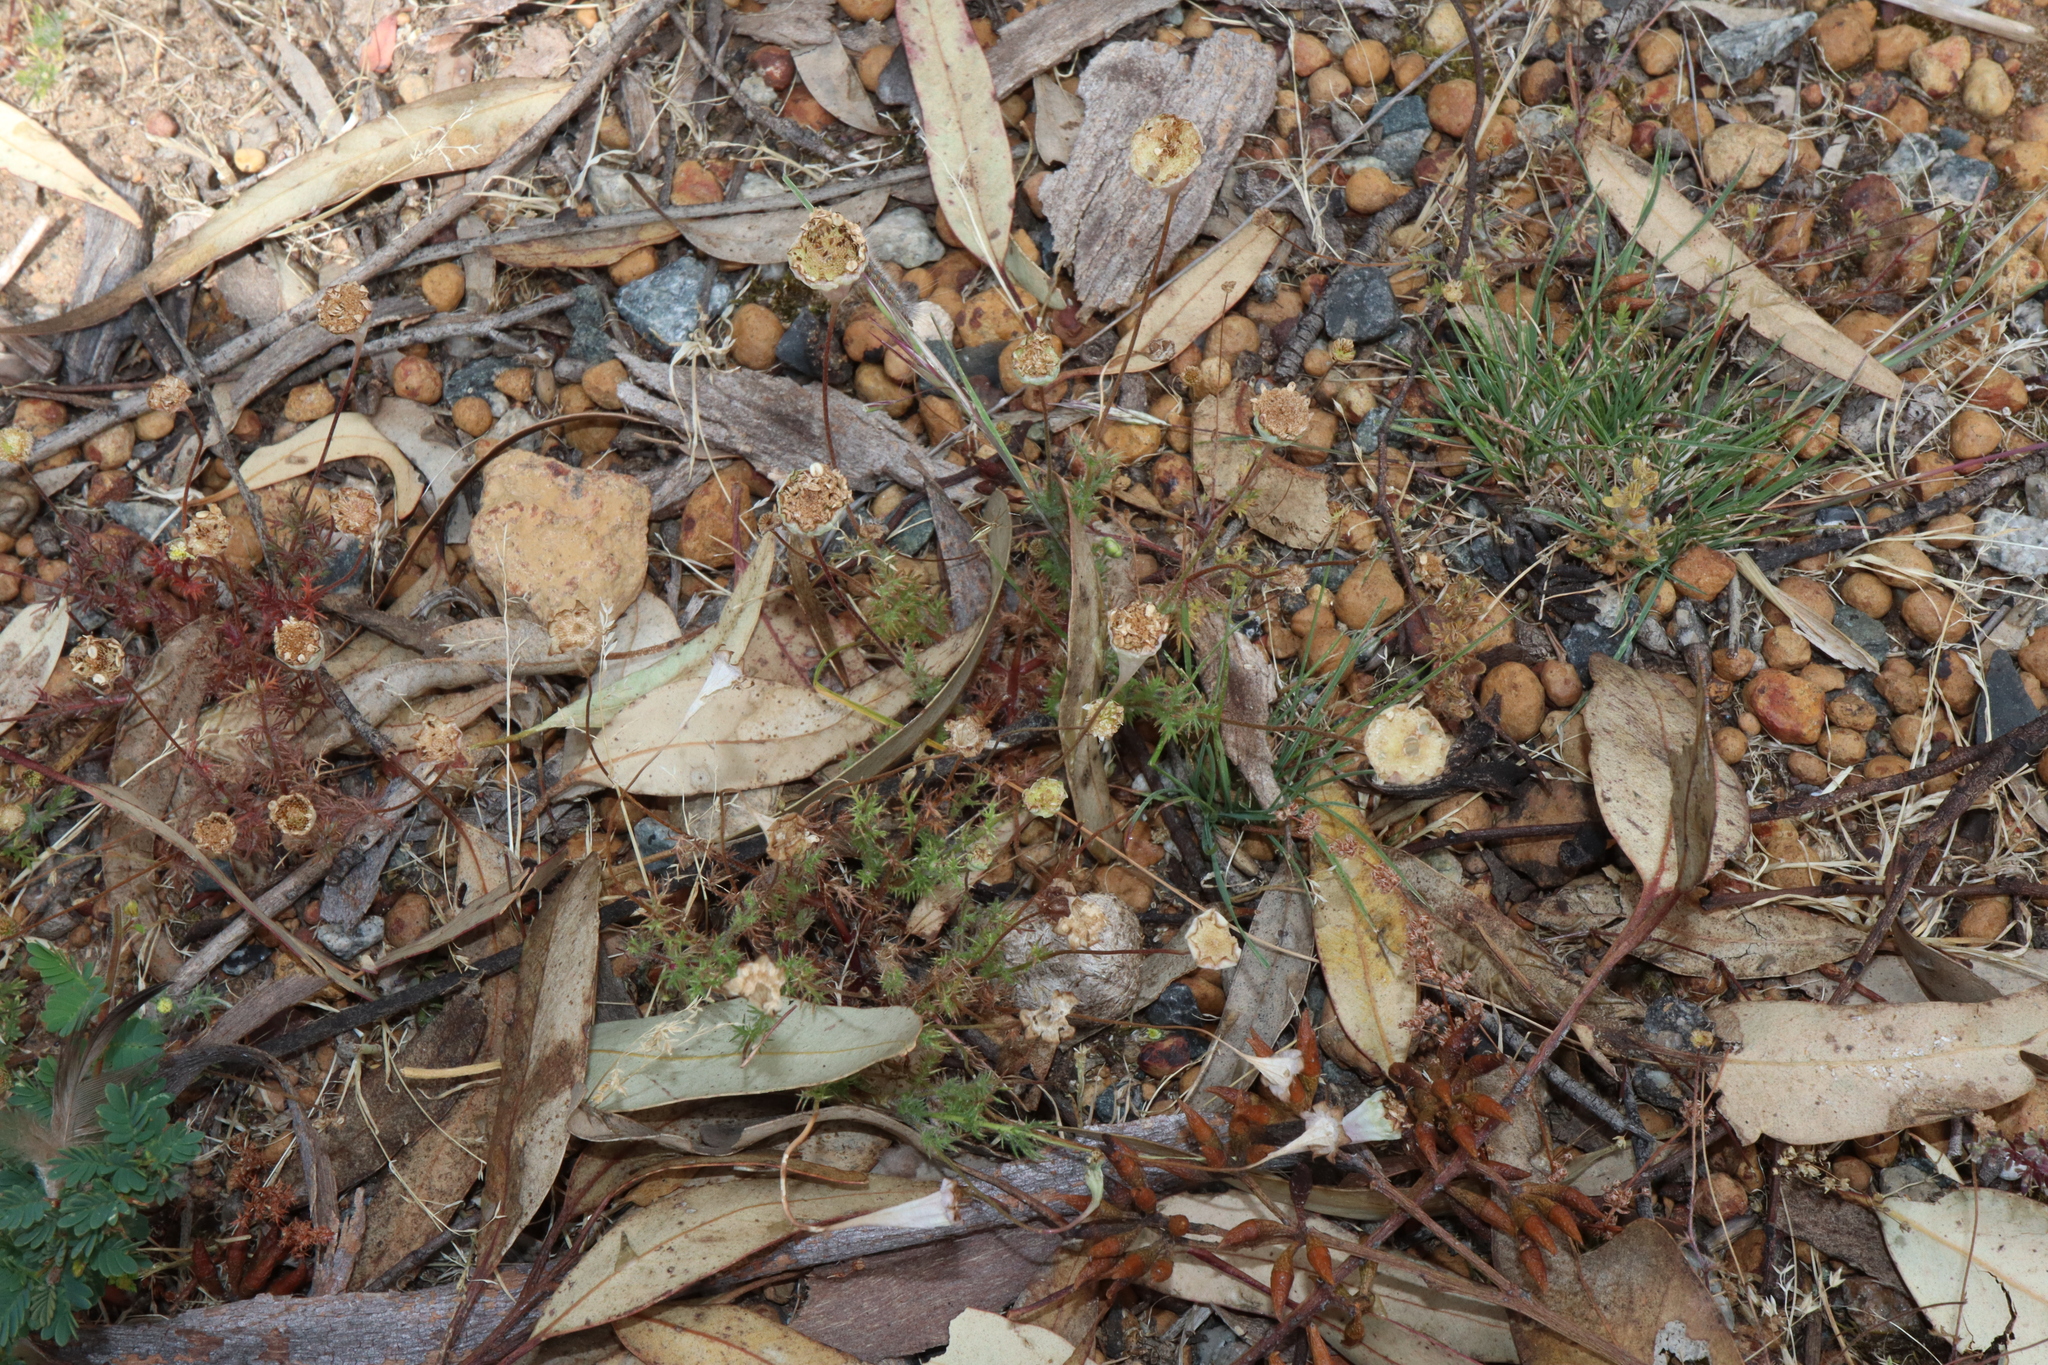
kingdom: Plantae
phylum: Tracheophyta
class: Magnoliopsida
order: Asterales
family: Asteraceae
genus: Cotula
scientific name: Cotula turbinata
